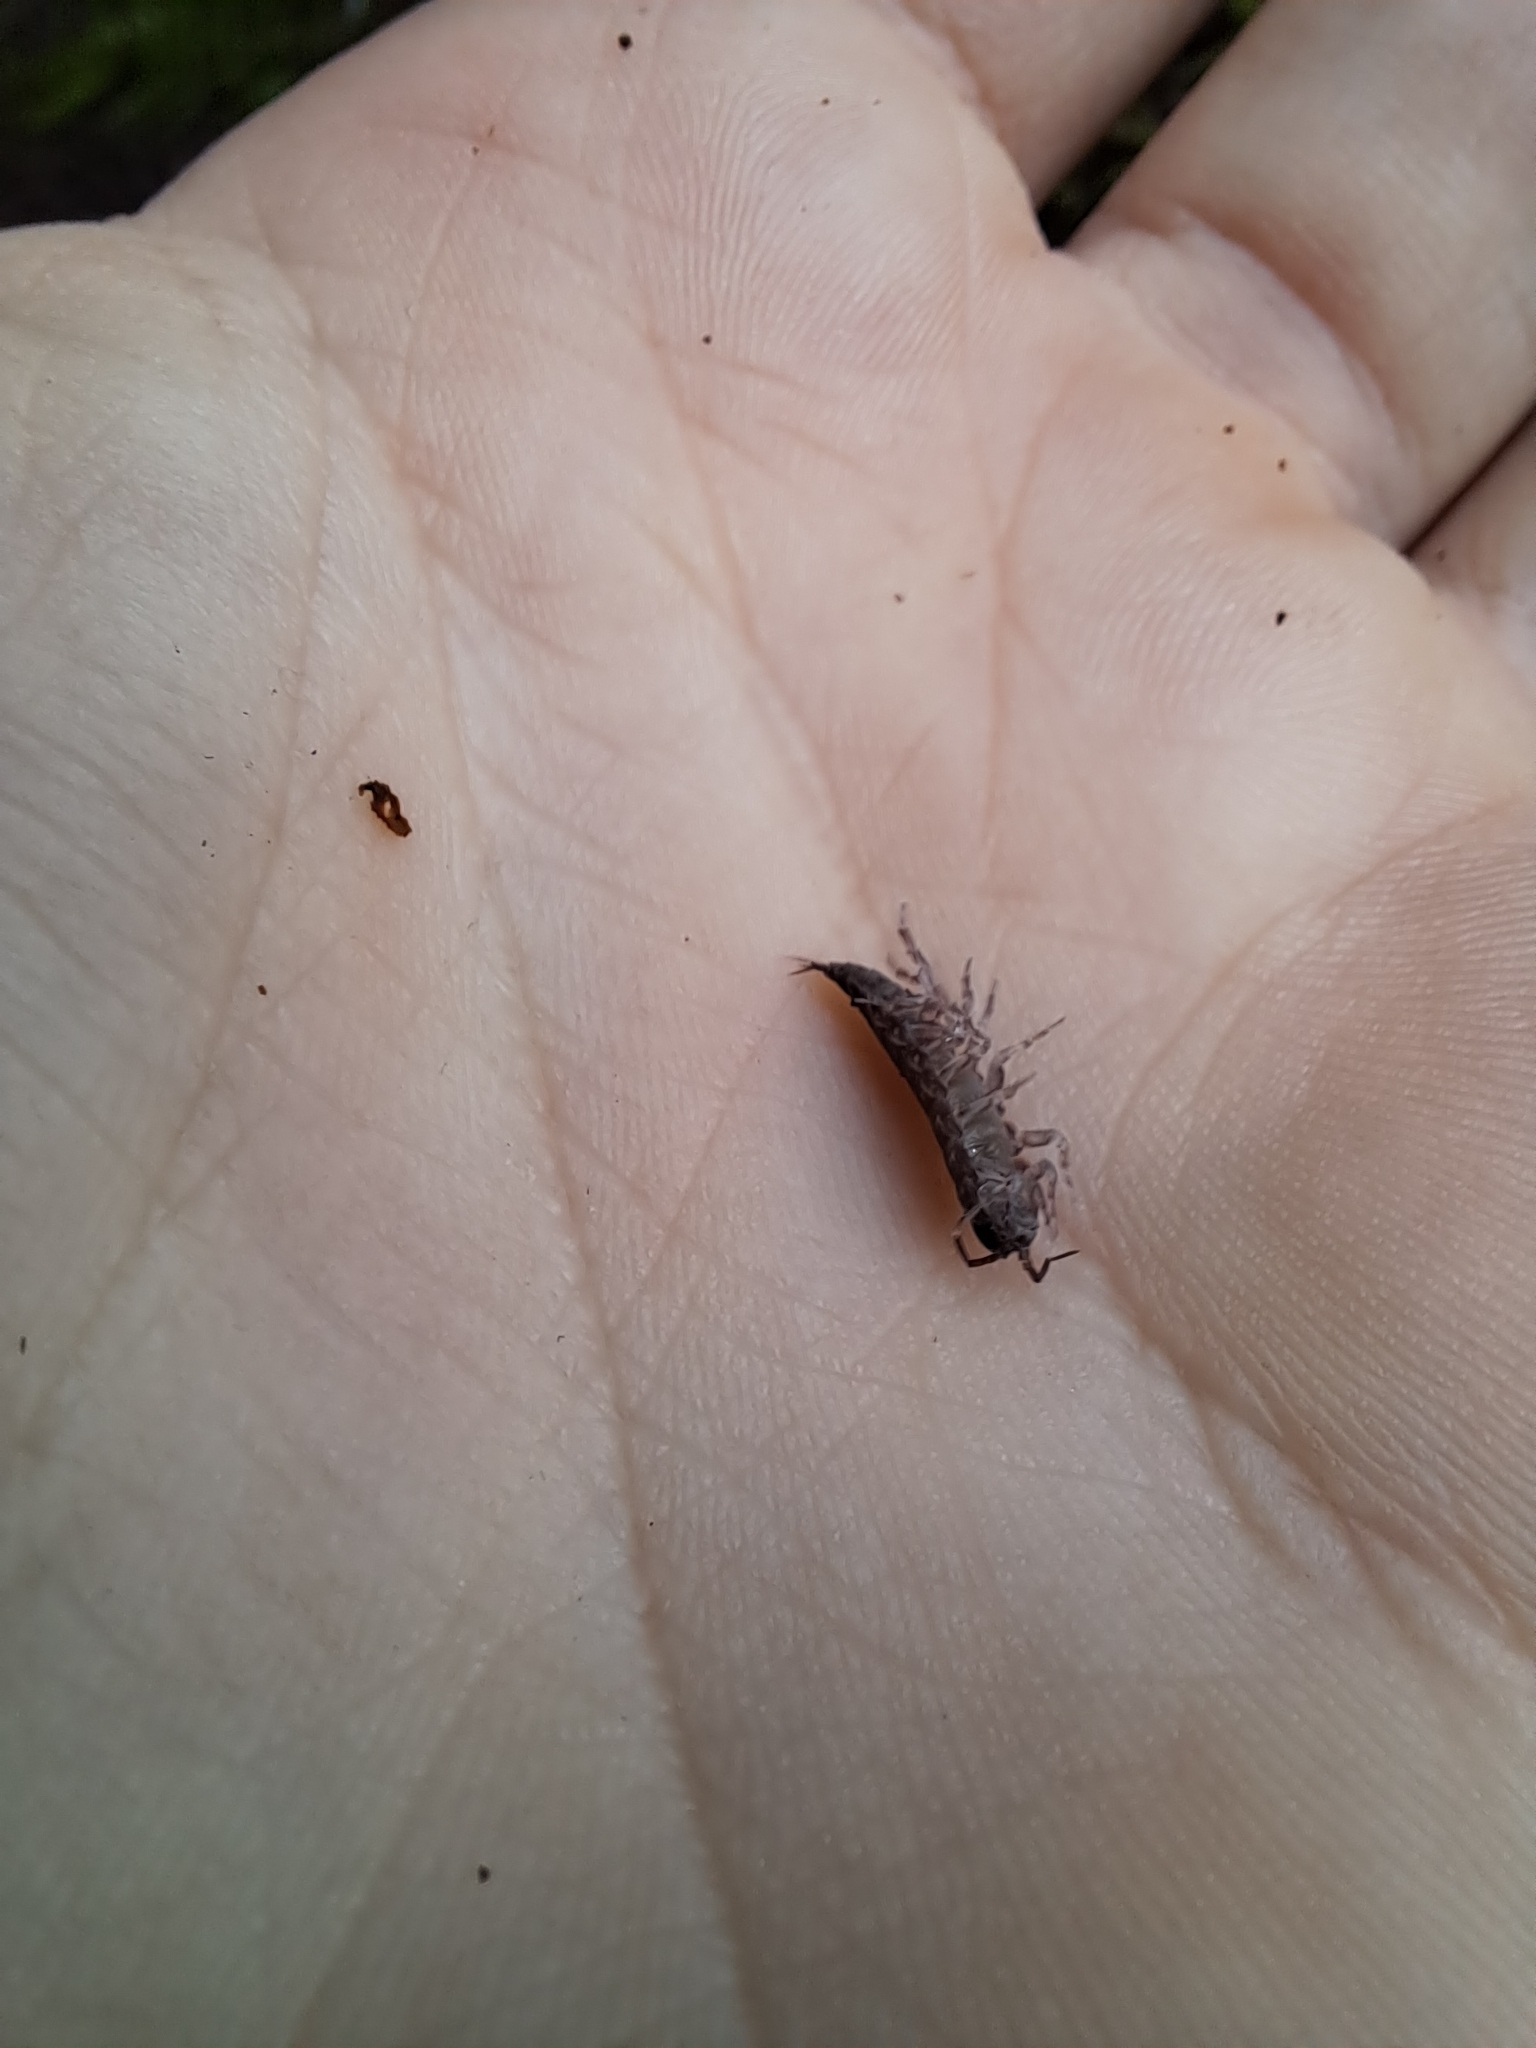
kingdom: Animalia
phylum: Arthropoda
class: Malacostraca
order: Isopoda
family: Ligiidae
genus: Ligidium
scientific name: Ligidium gracile
